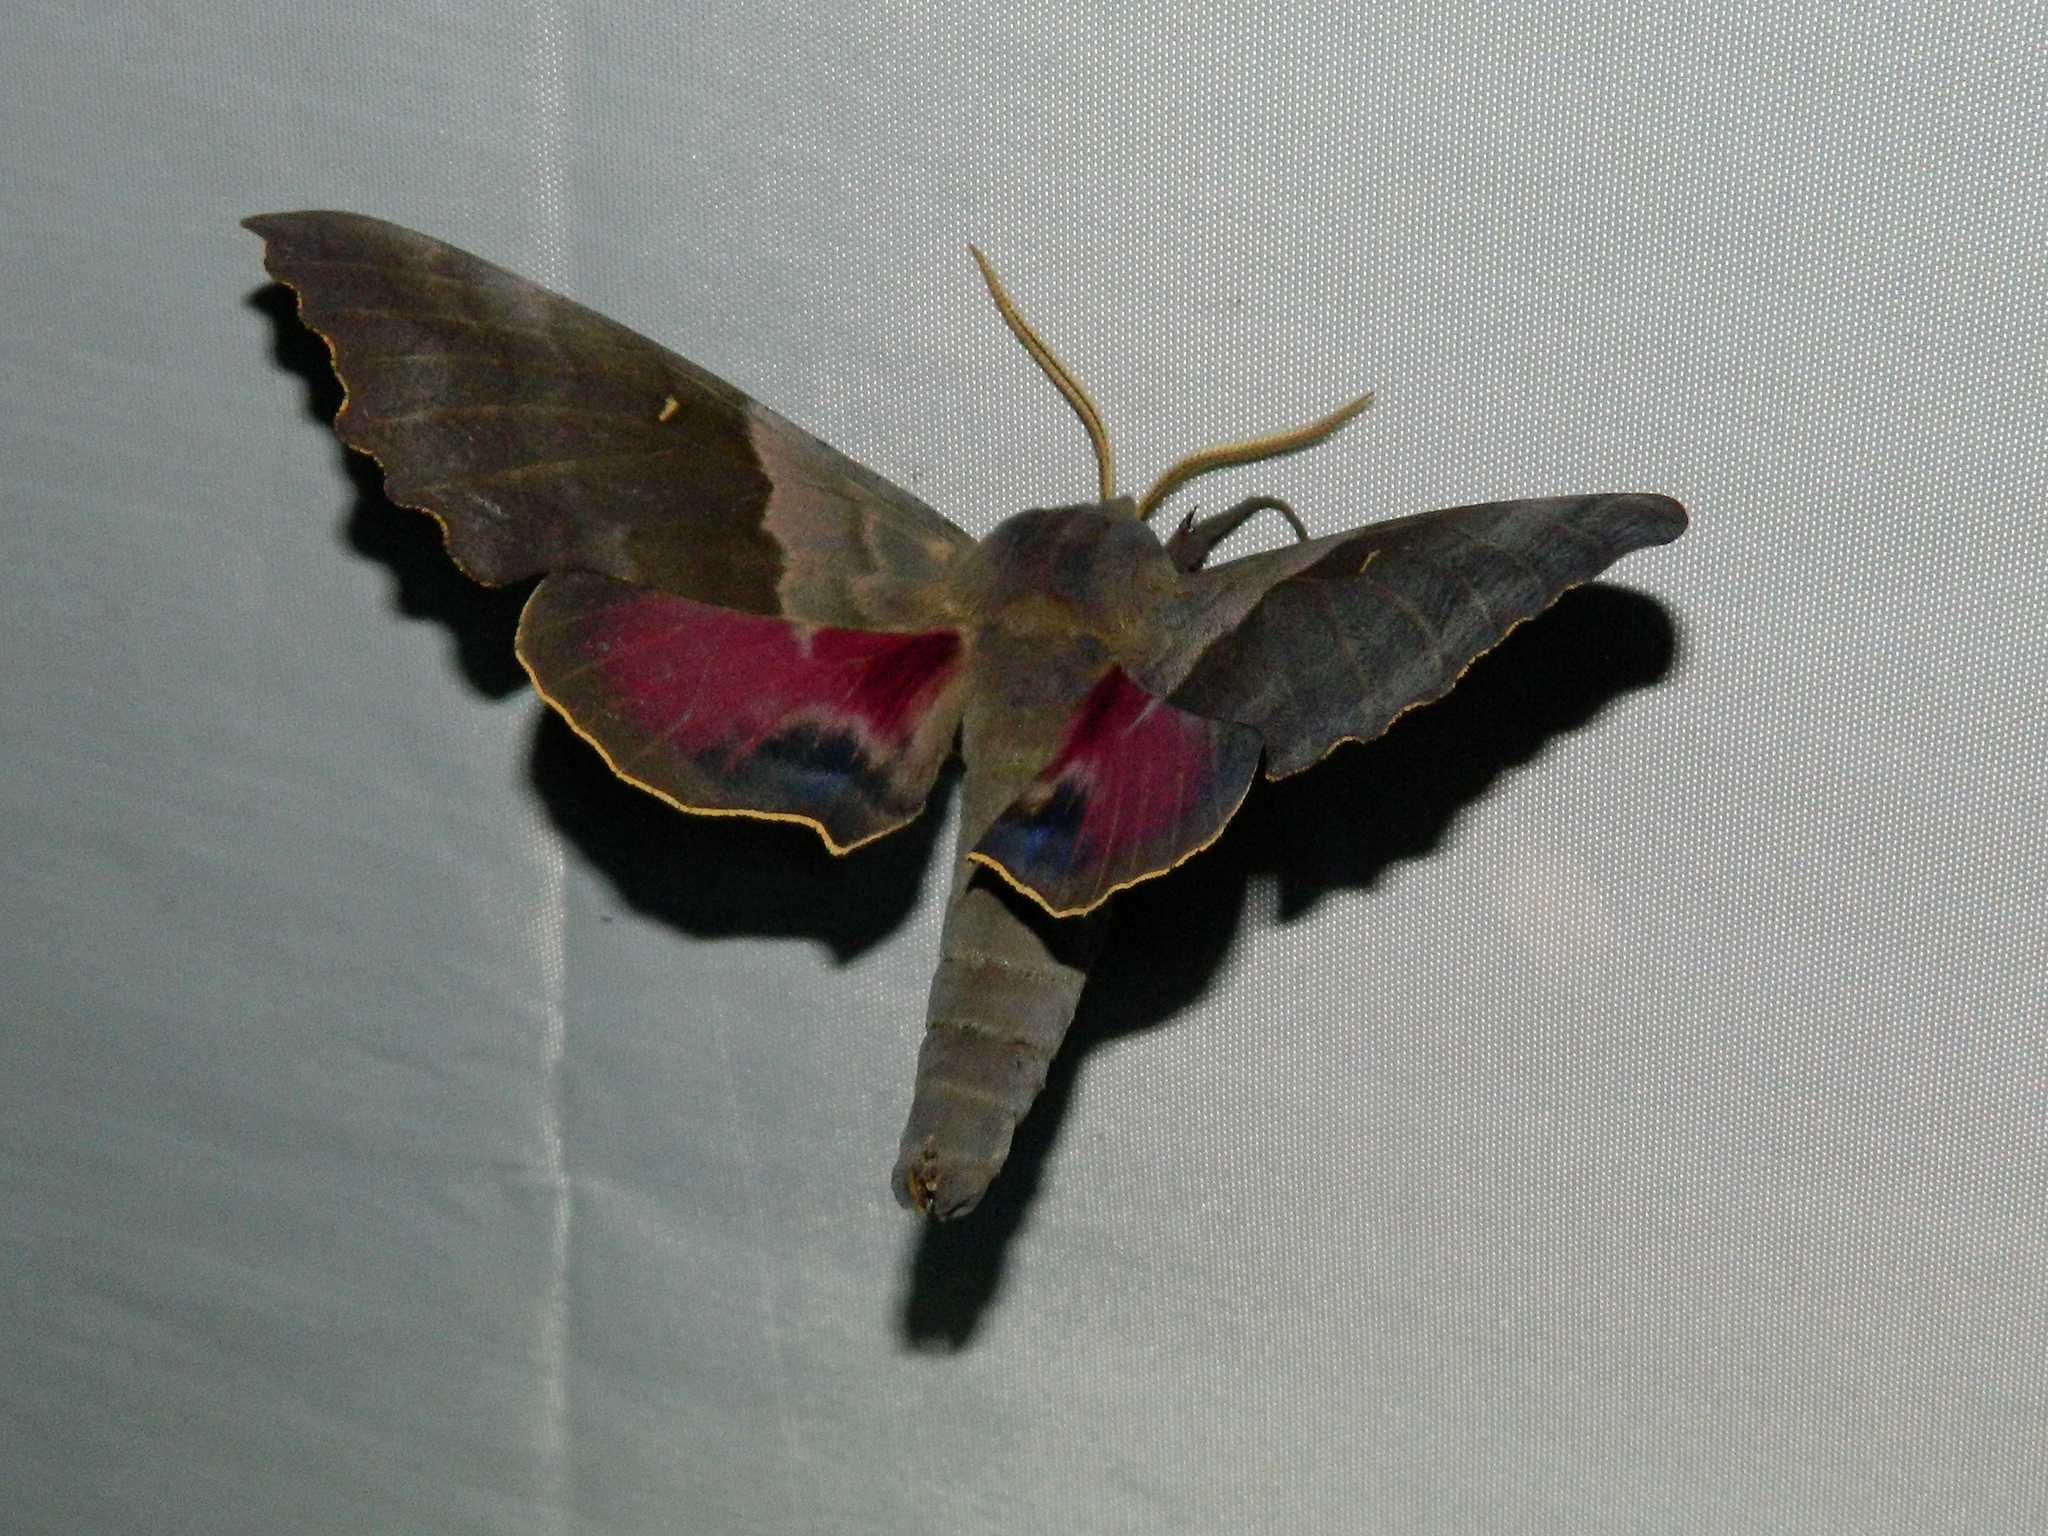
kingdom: Animalia
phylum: Arthropoda
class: Insecta
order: Lepidoptera
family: Sphingidae
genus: Pachysphinx
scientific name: Pachysphinx modesta
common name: Big poplar sphinx
